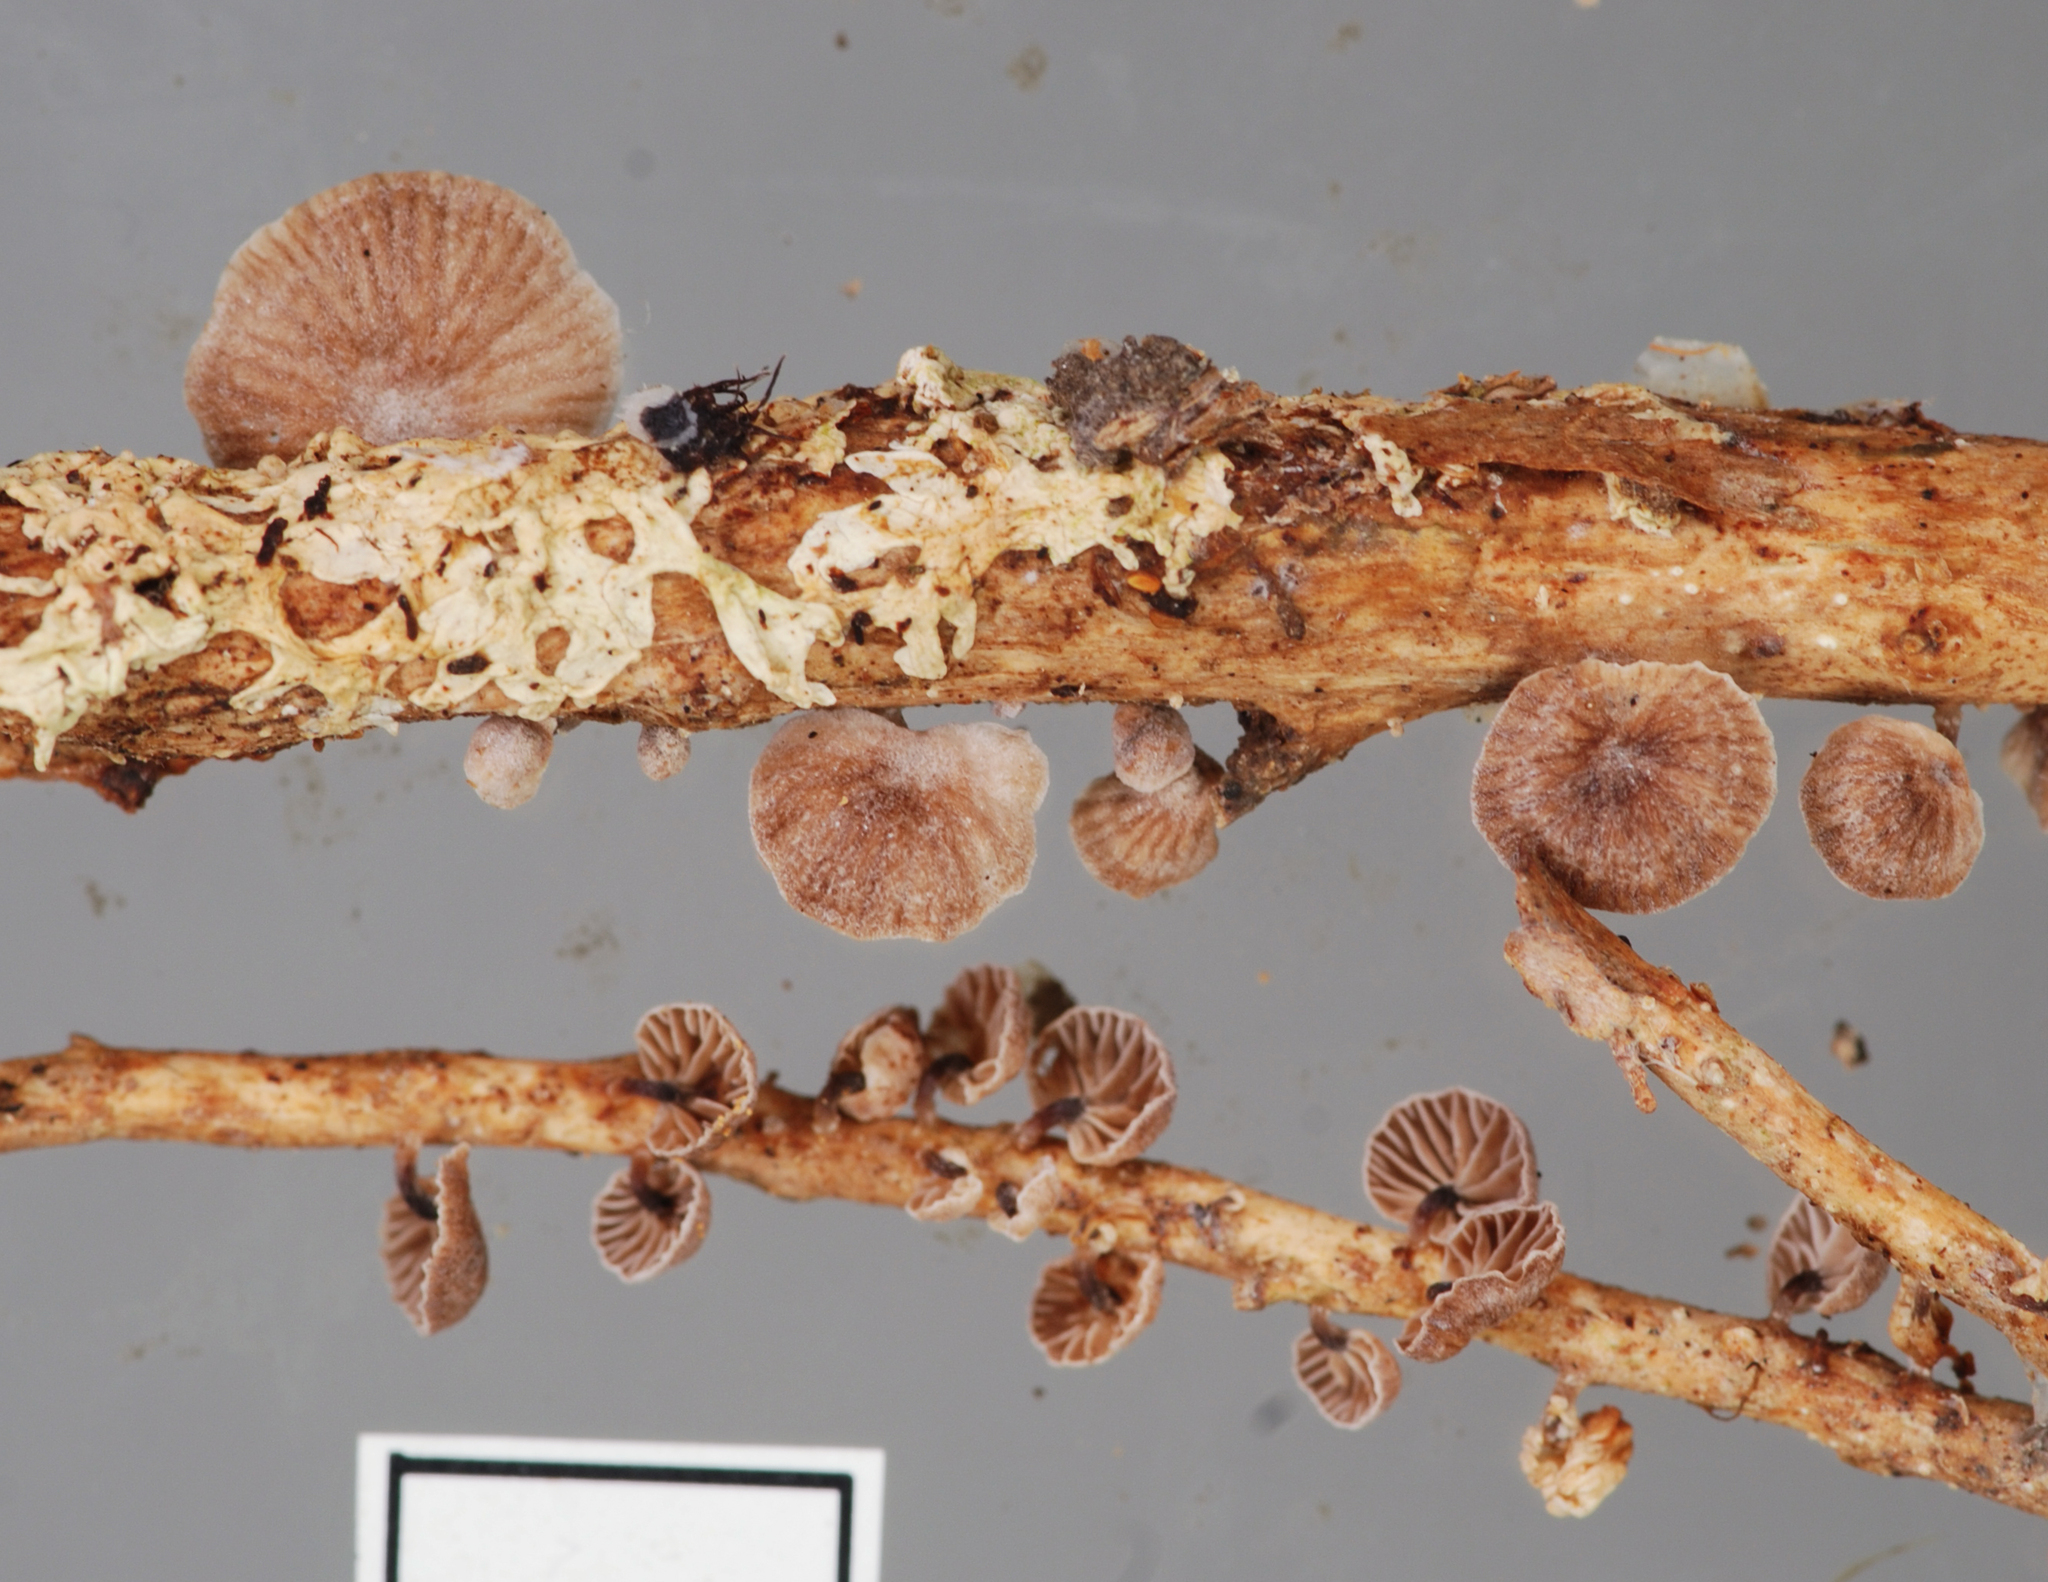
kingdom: Fungi
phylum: Basidiomycota
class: Agaricomycetes
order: Agaricales
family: Omphalotaceae
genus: Gymnopus
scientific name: Gymnopus imbricatus
